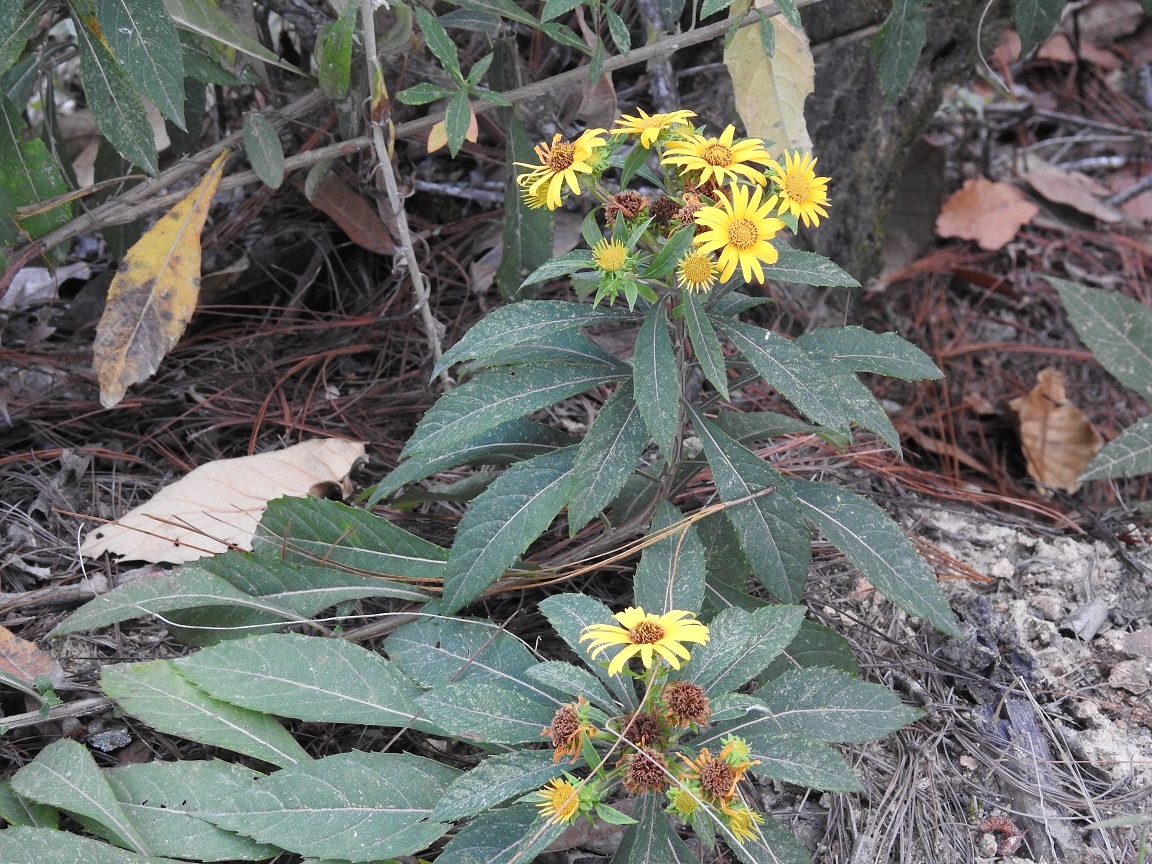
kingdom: Plantae
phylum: Tracheophyta
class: Magnoliopsida
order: Asterales
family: Asteraceae
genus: Verbesina
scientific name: Verbesina hypargyrea
